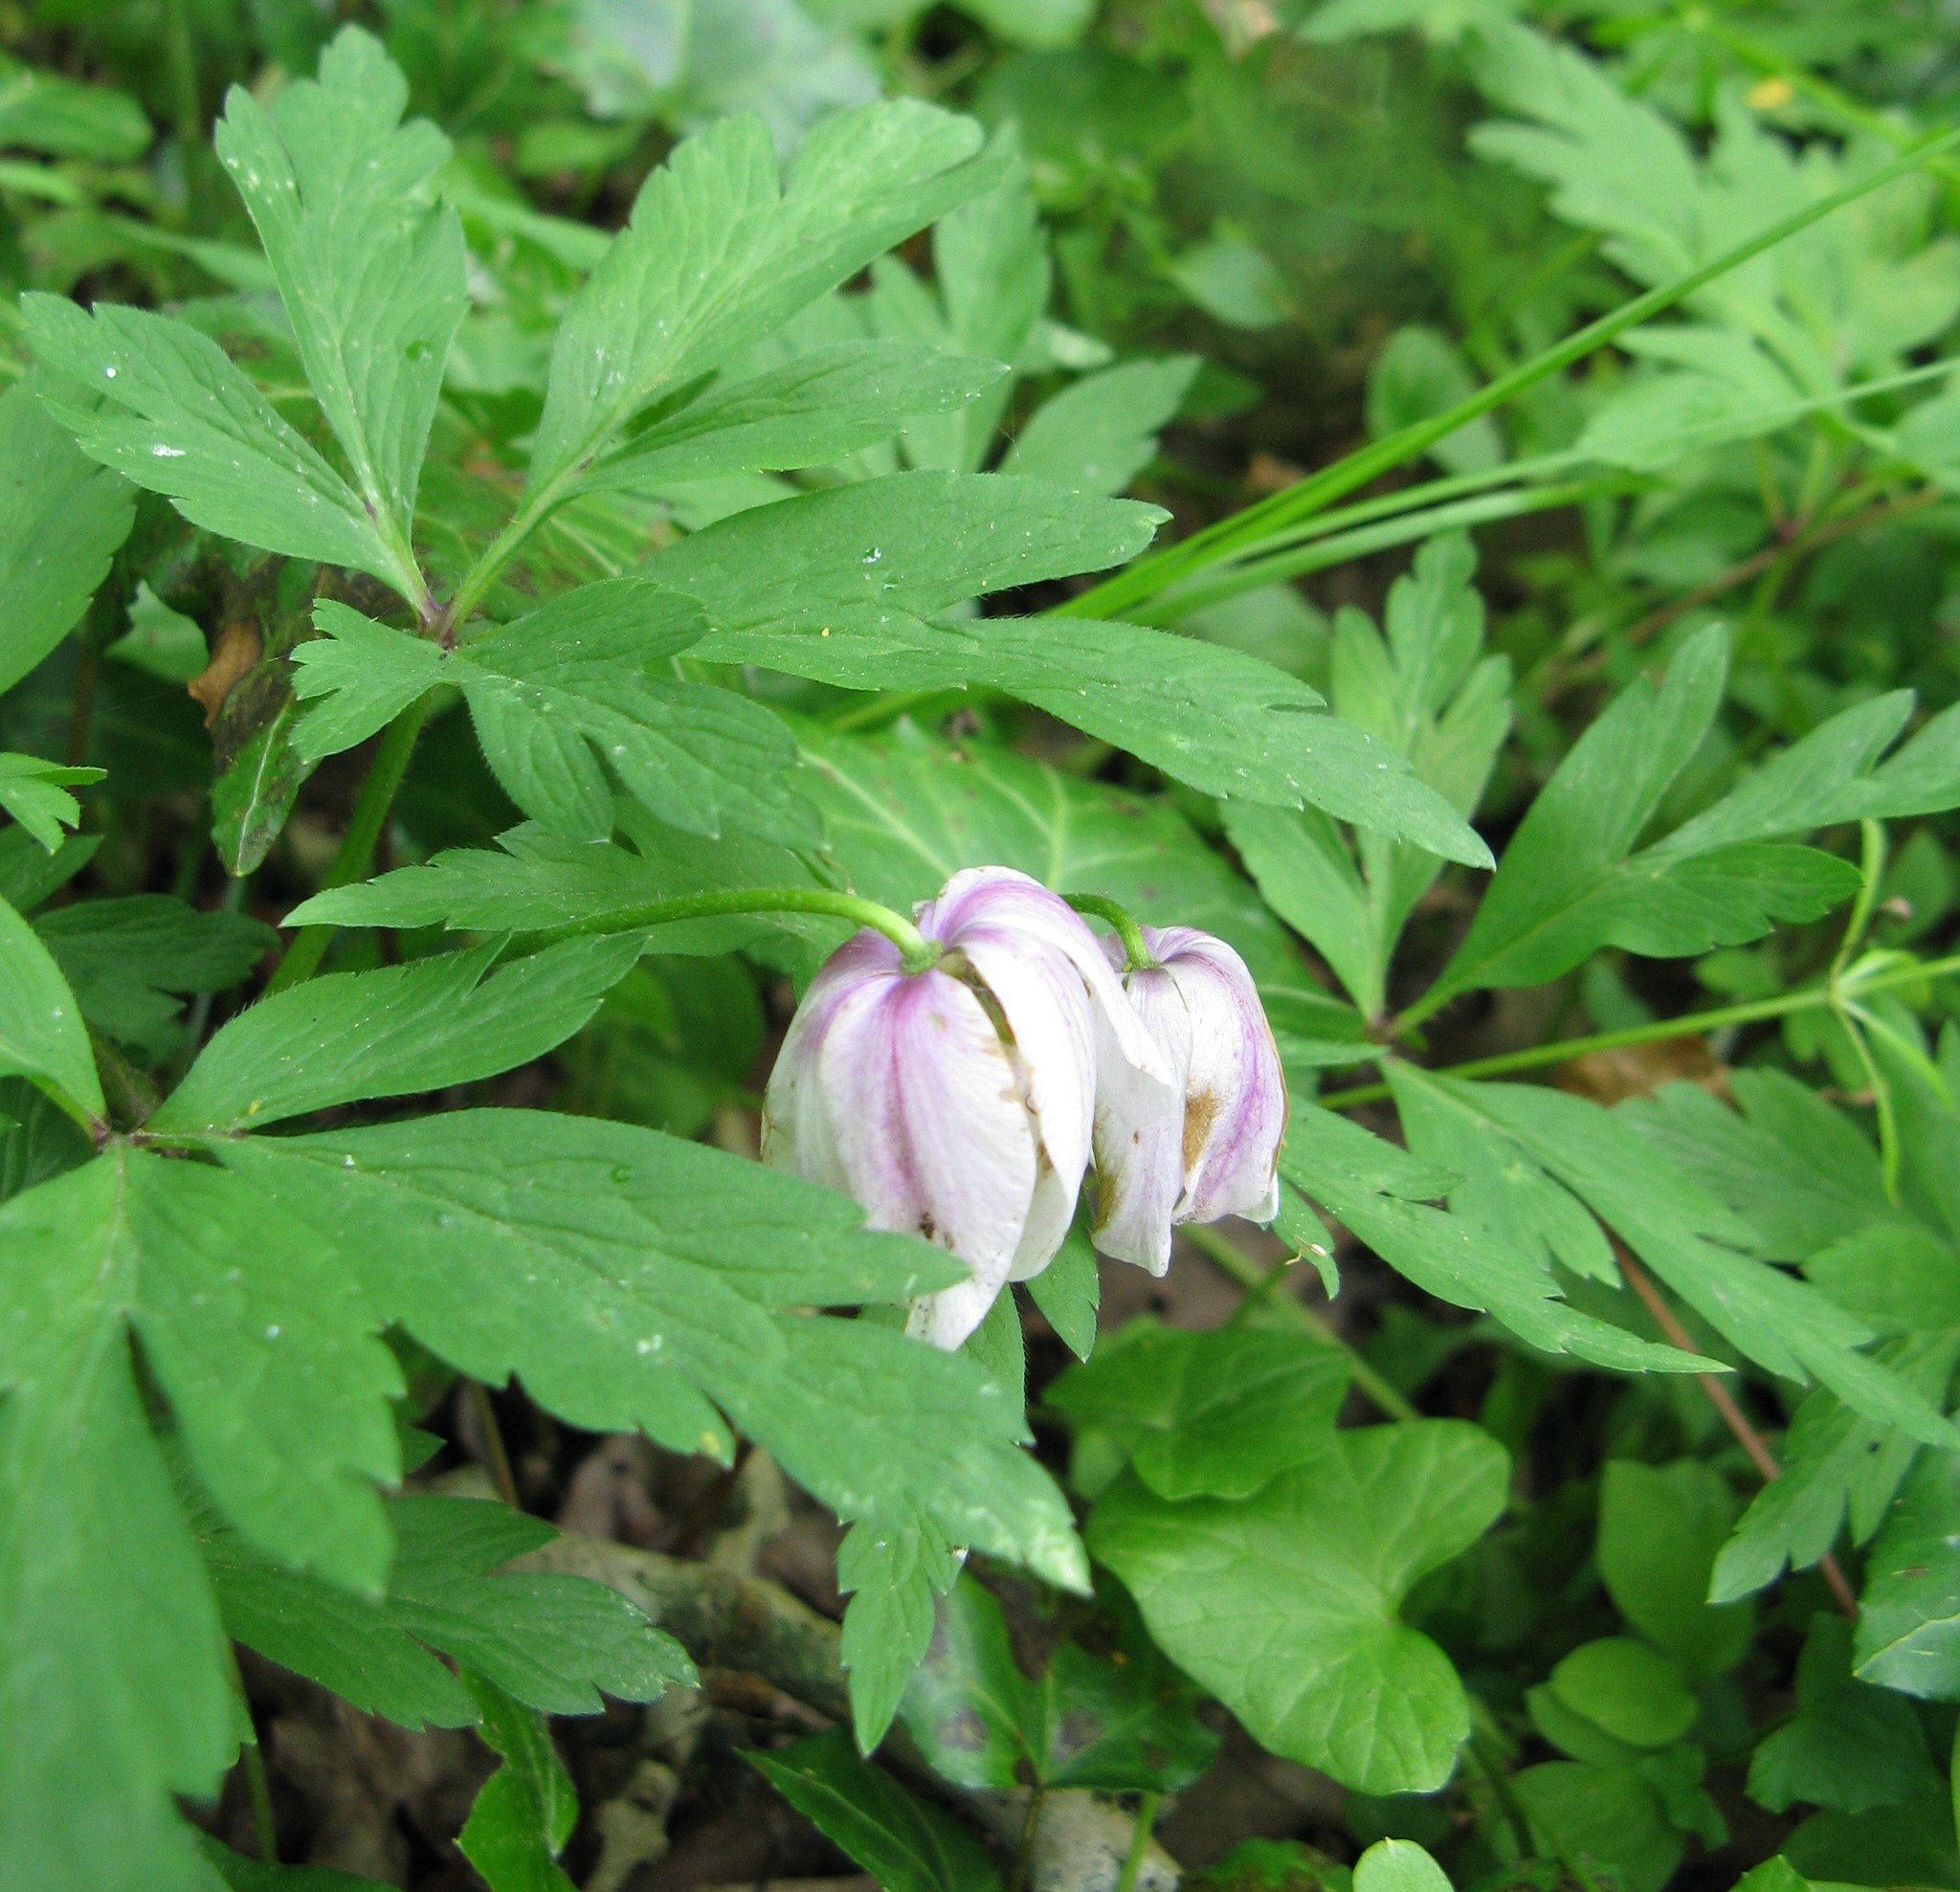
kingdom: Plantae
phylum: Tracheophyta
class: Magnoliopsida
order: Ranunculales
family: Ranunculaceae
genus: Anemone
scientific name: Anemone nemorosa
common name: Wood anemone
